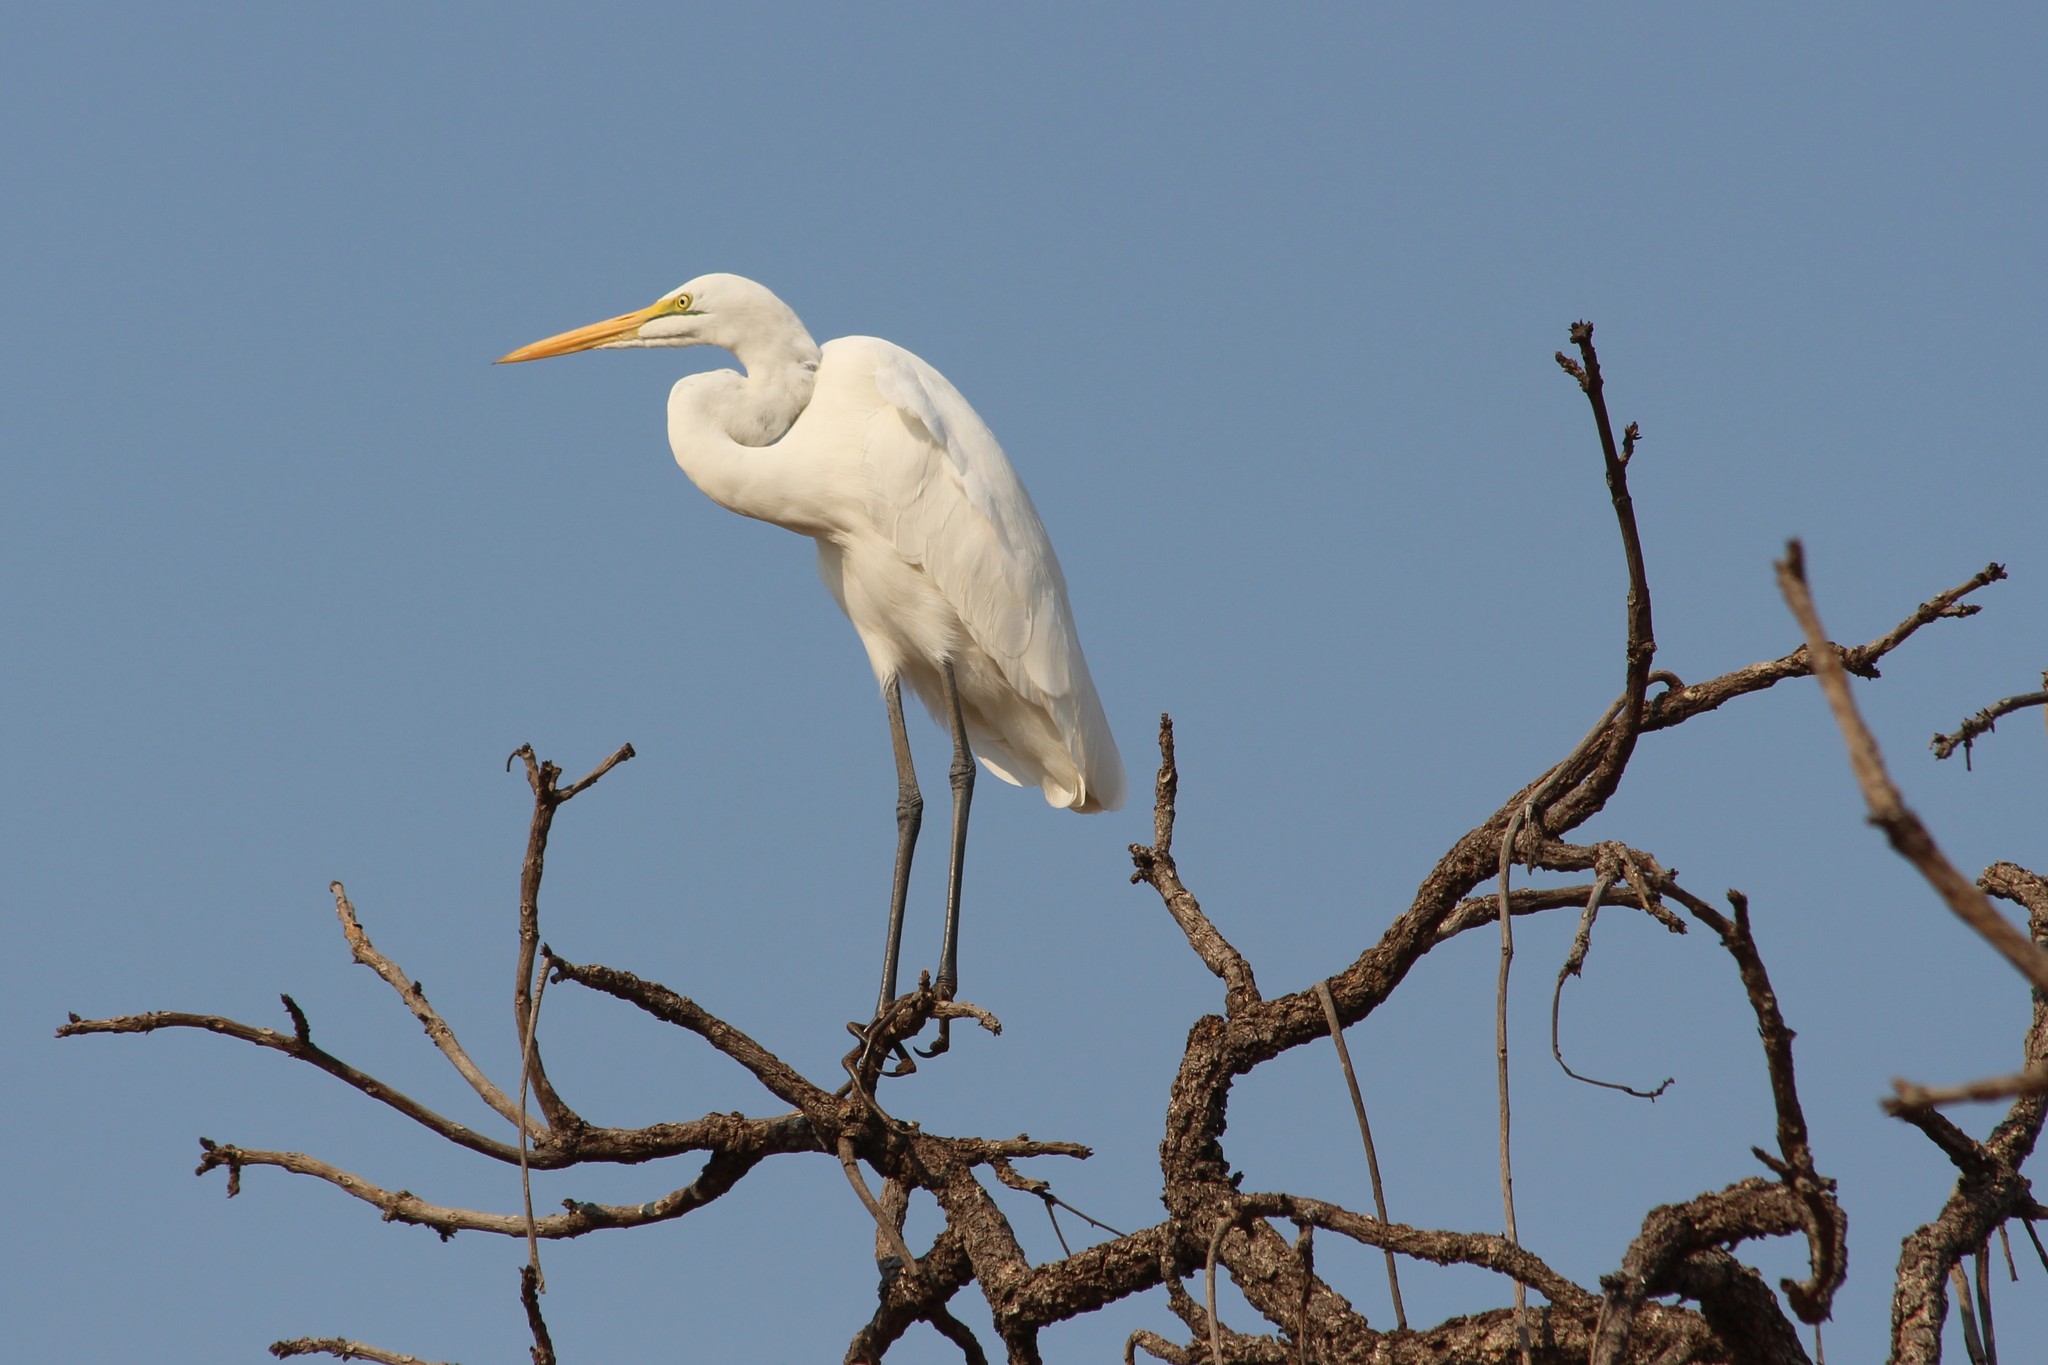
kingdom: Animalia
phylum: Chordata
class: Aves
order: Pelecaniformes
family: Ardeidae
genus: Ardea
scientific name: Ardea alba
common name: Great egret
